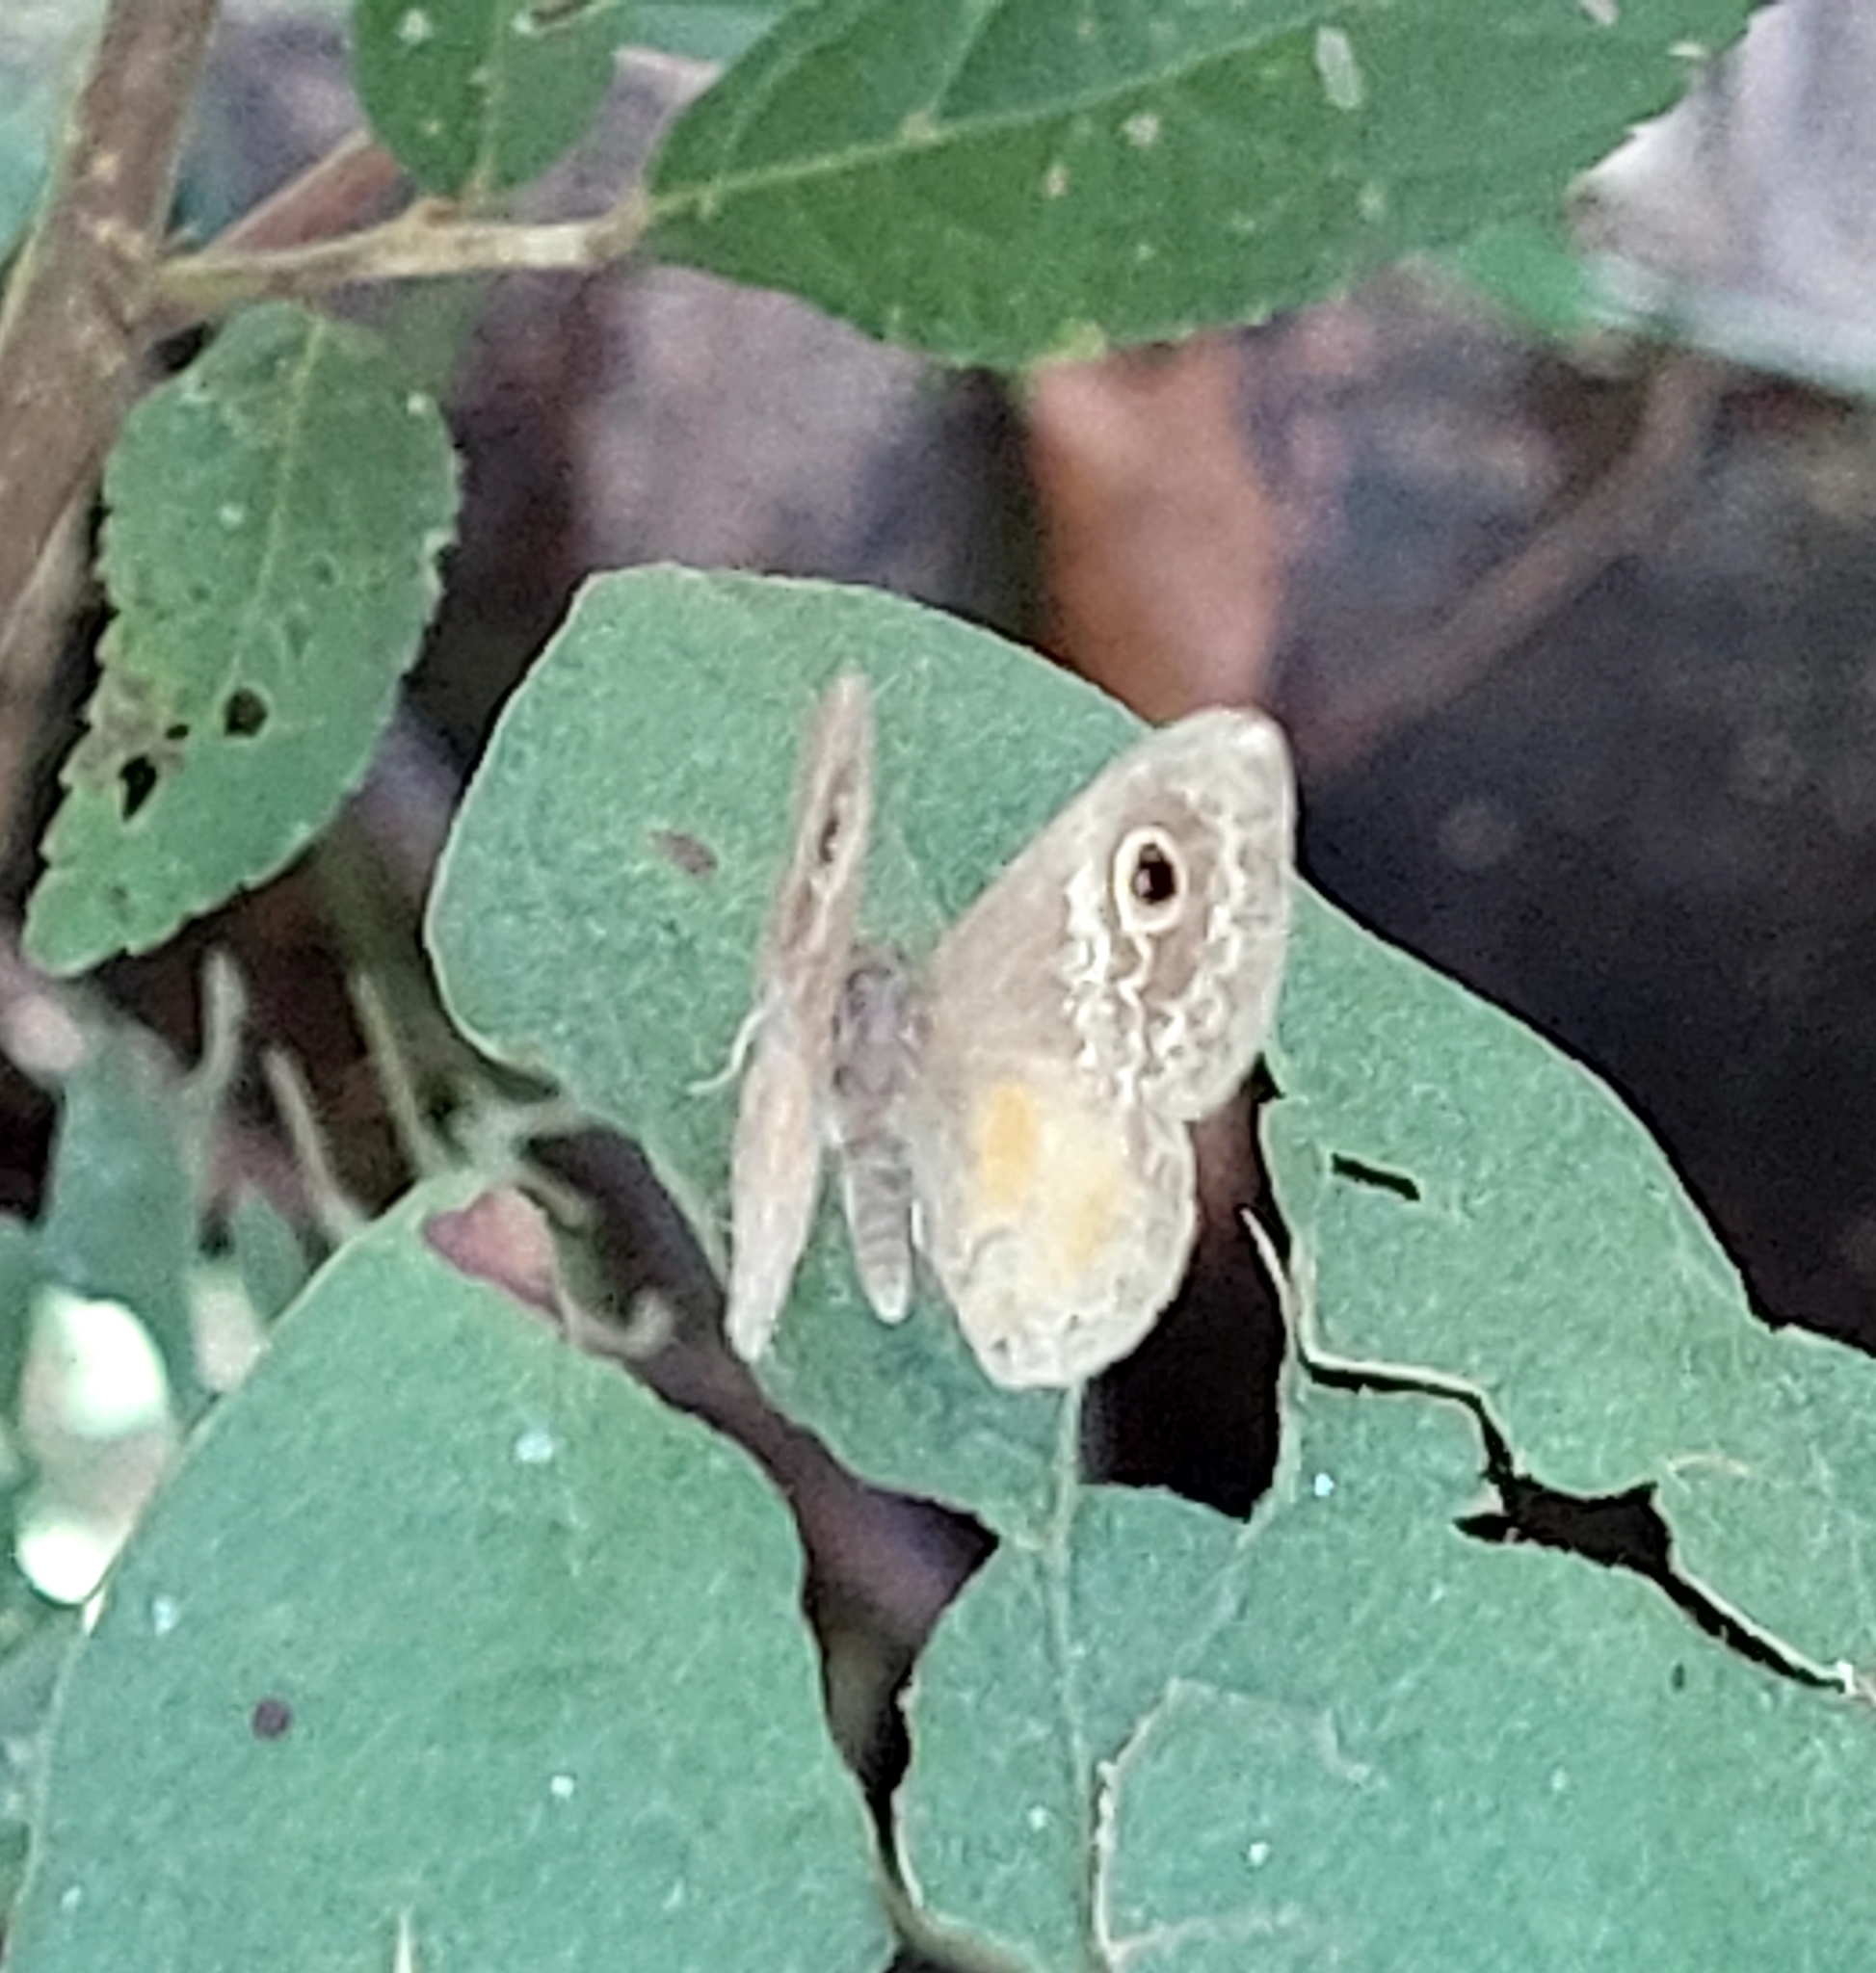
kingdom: Animalia
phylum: Arthropoda
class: Insecta
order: Lepidoptera
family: Riodinidae
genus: Perophthalma
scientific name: Perophthalma tullius
